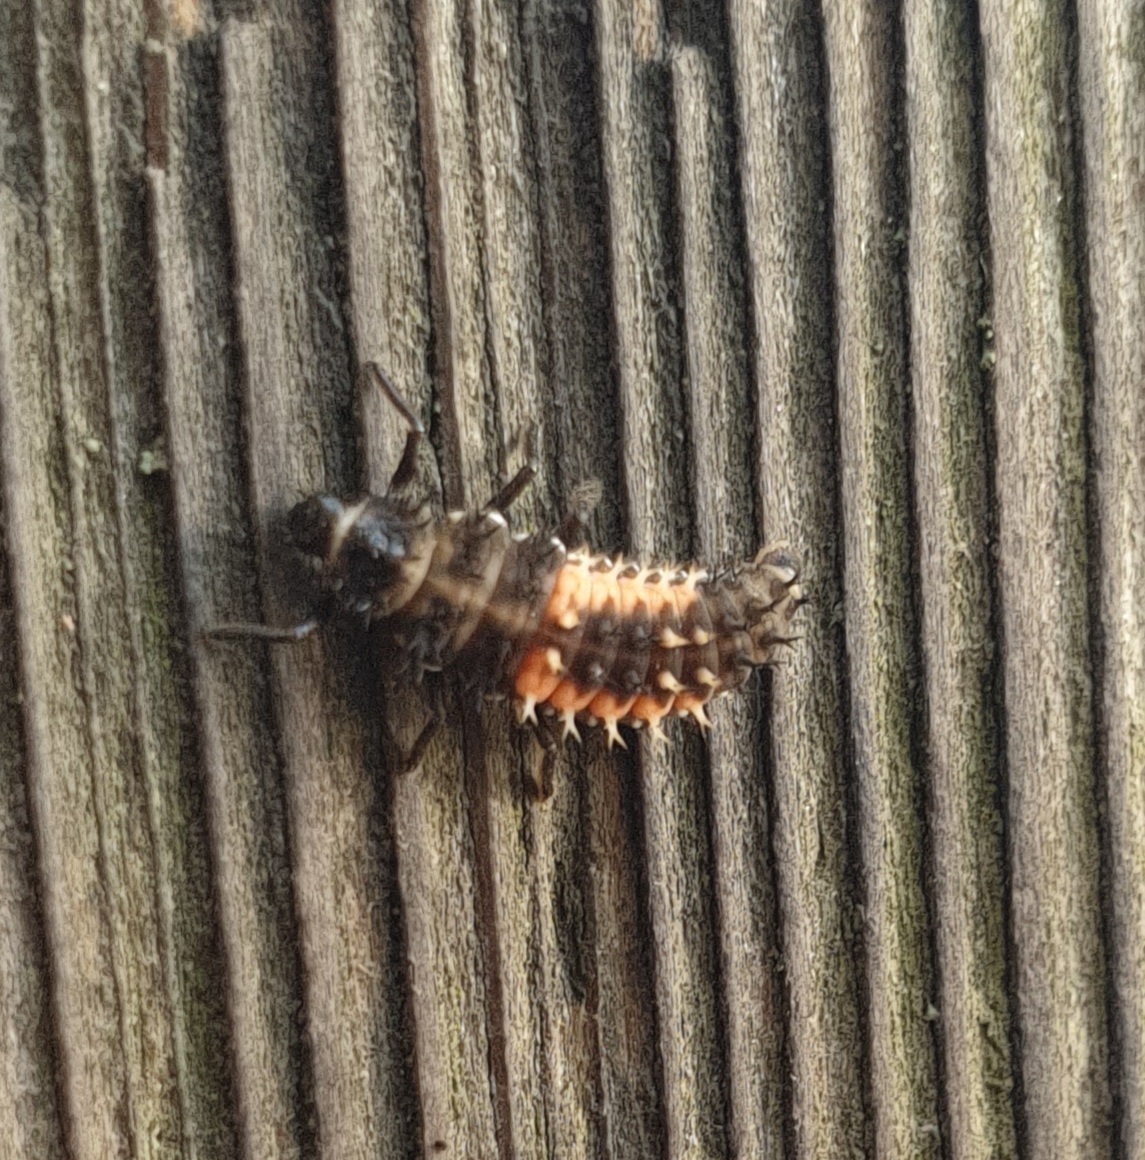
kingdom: Animalia
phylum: Arthropoda
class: Insecta
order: Coleoptera
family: Coccinellidae
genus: Harmonia
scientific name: Harmonia axyridis
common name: Harlequin ladybird
